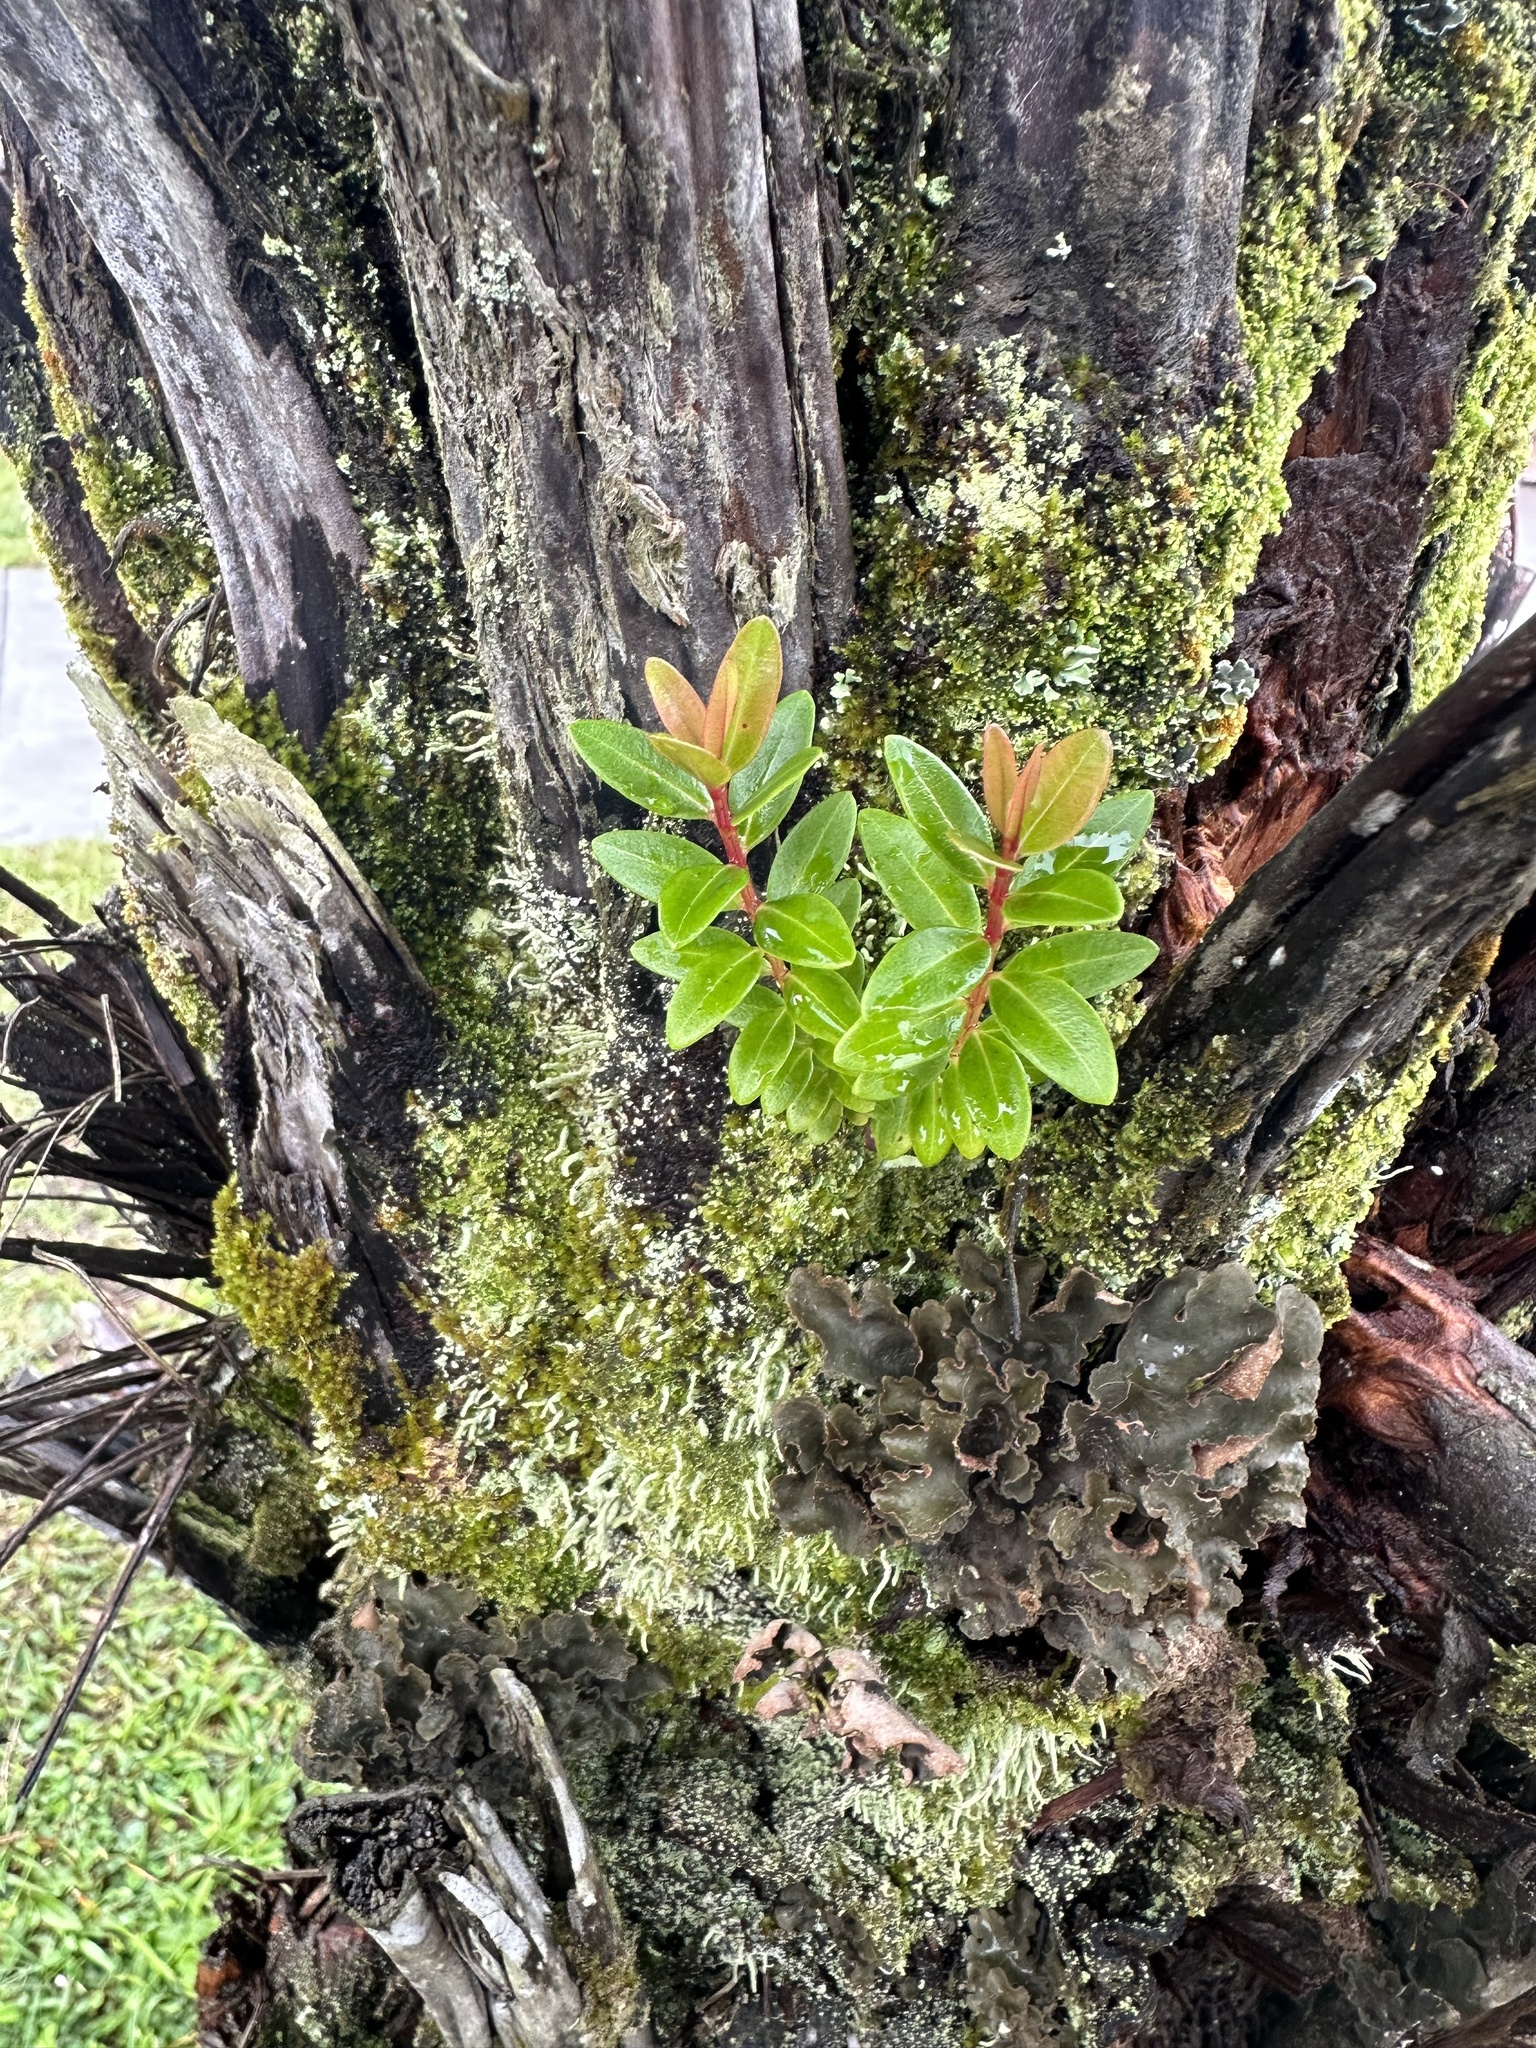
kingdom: Plantae
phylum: Tracheophyta
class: Magnoliopsida
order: Myrtales
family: Myrtaceae
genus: Metrosideros
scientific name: Metrosideros polymorpha
